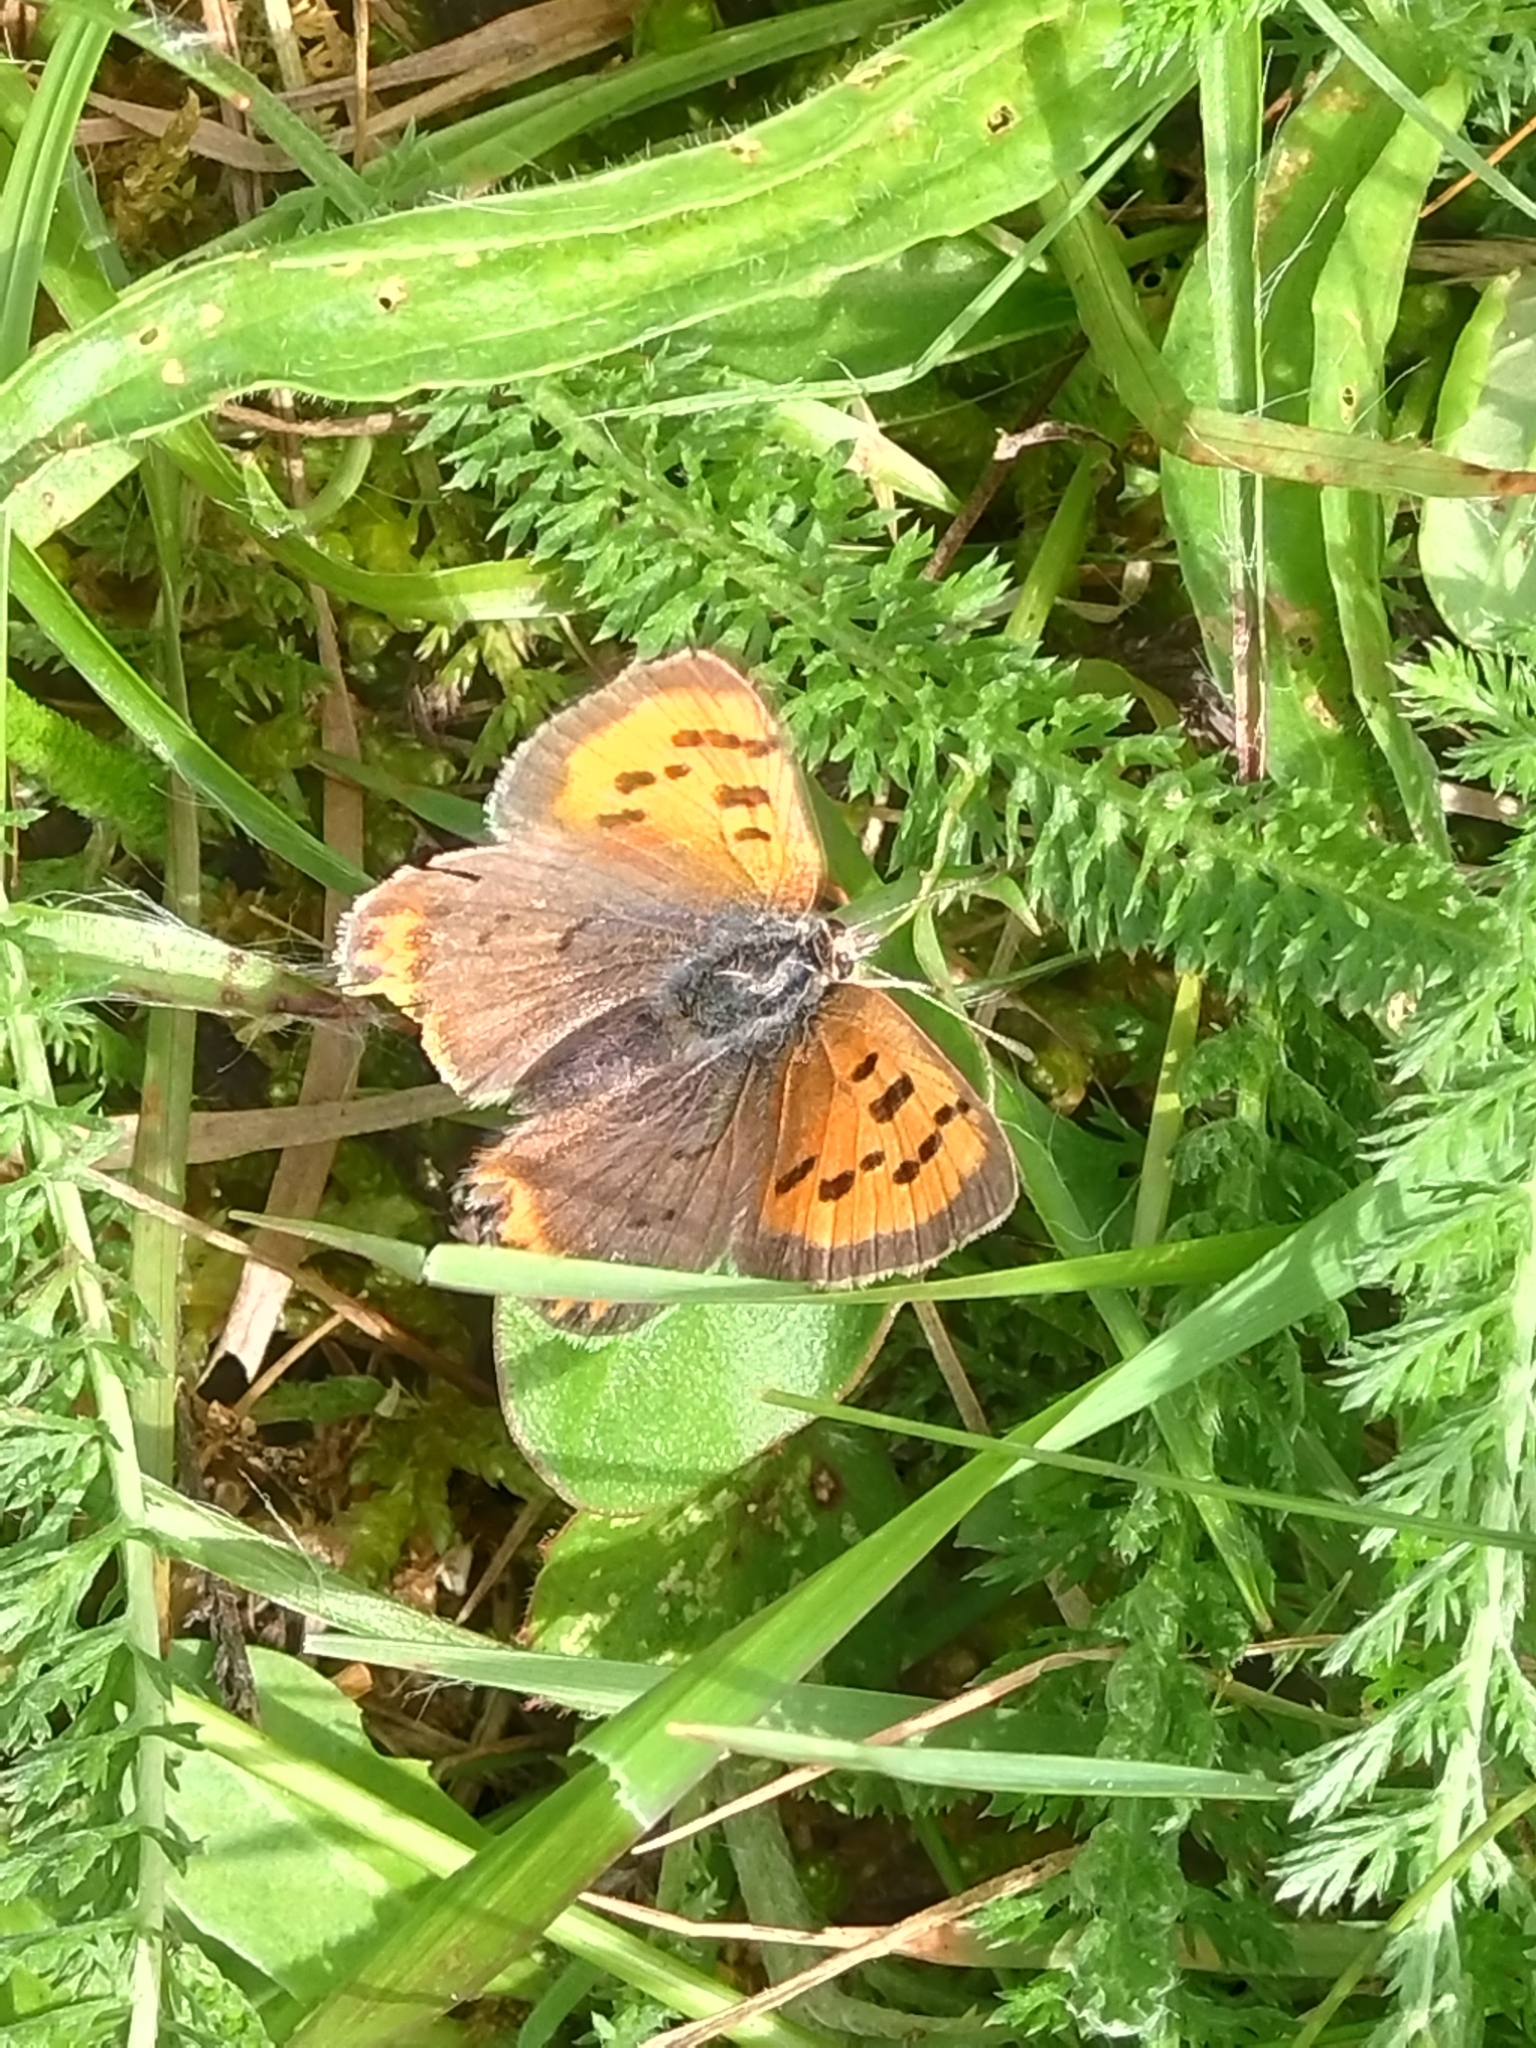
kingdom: Animalia
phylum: Arthropoda
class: Insecta
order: Lepidoptera
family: Lycaenidae
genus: Lycaena
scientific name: Lycaena phlaeas
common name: Small copper
